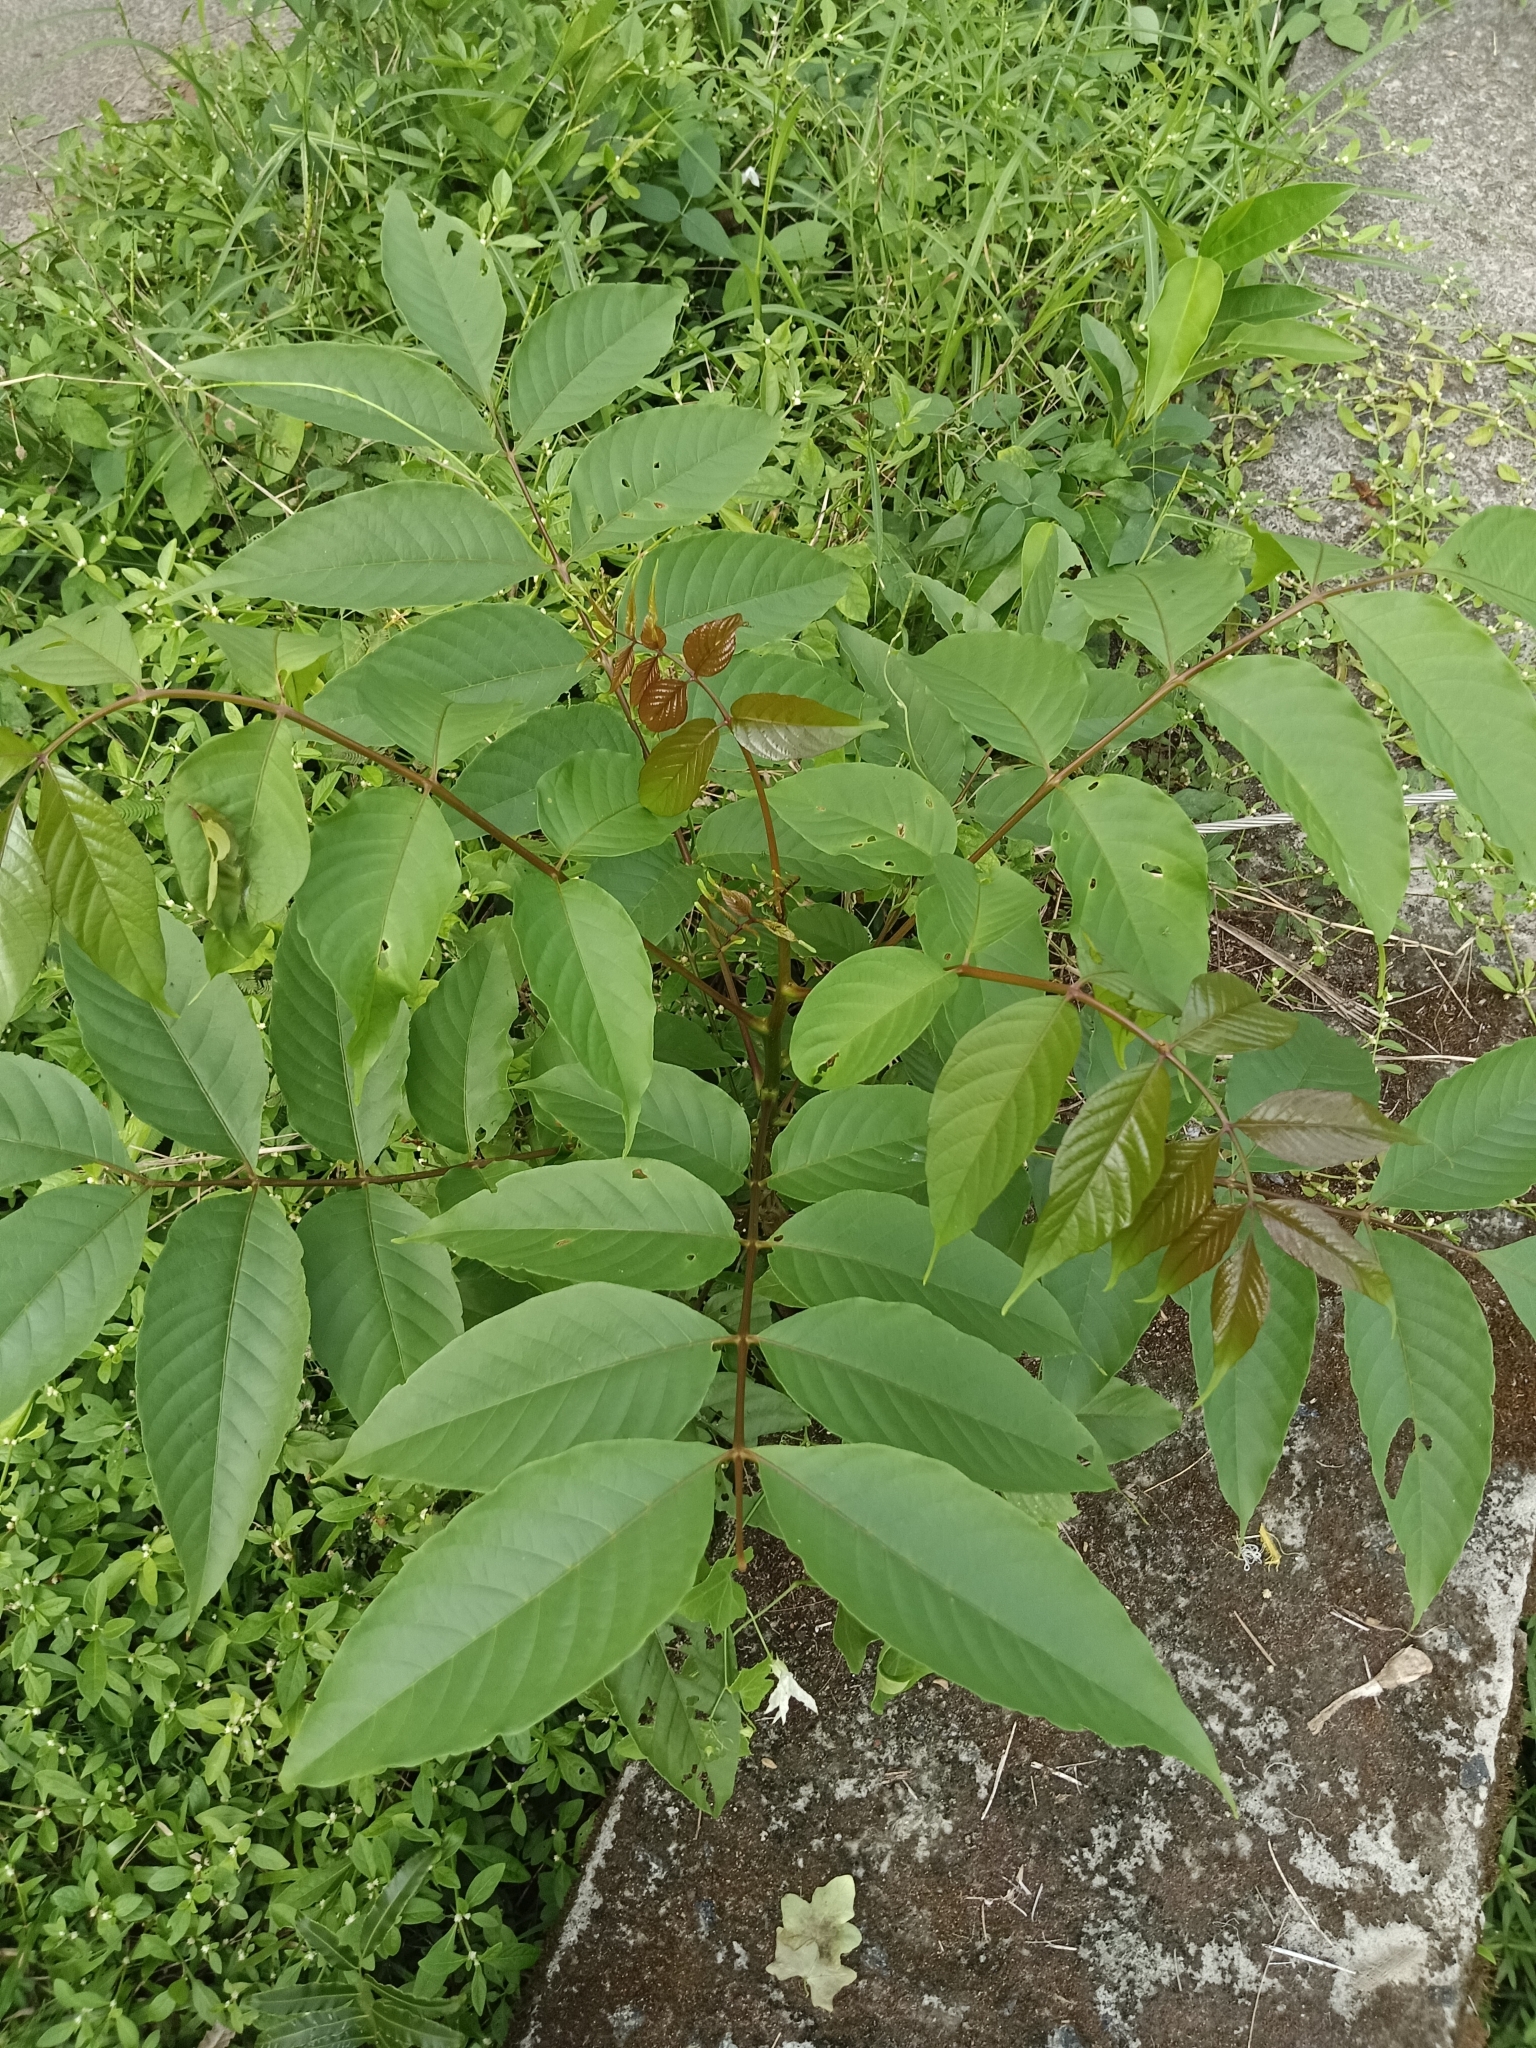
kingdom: Plantae
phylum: Tracheophyta
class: Magnoliopsida
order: Sapindales
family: Anacardiaceae
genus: Lannea
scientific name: Lannea coromandelica
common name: Indian ash tree
